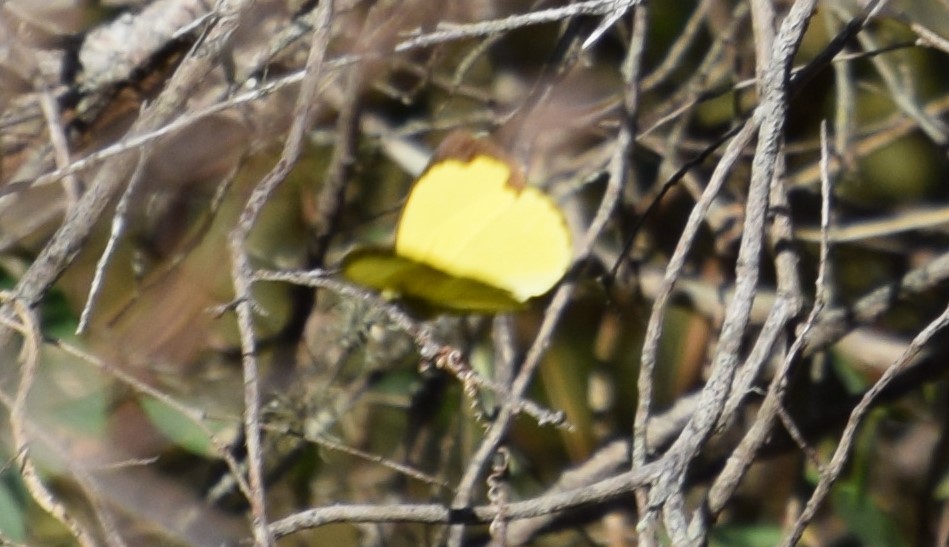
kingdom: Animalia
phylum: Arthropoda
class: Insecta
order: Lepidoptera
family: Pieridae
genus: Eurema
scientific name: Eurema hecabe
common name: Pale grass yellow
